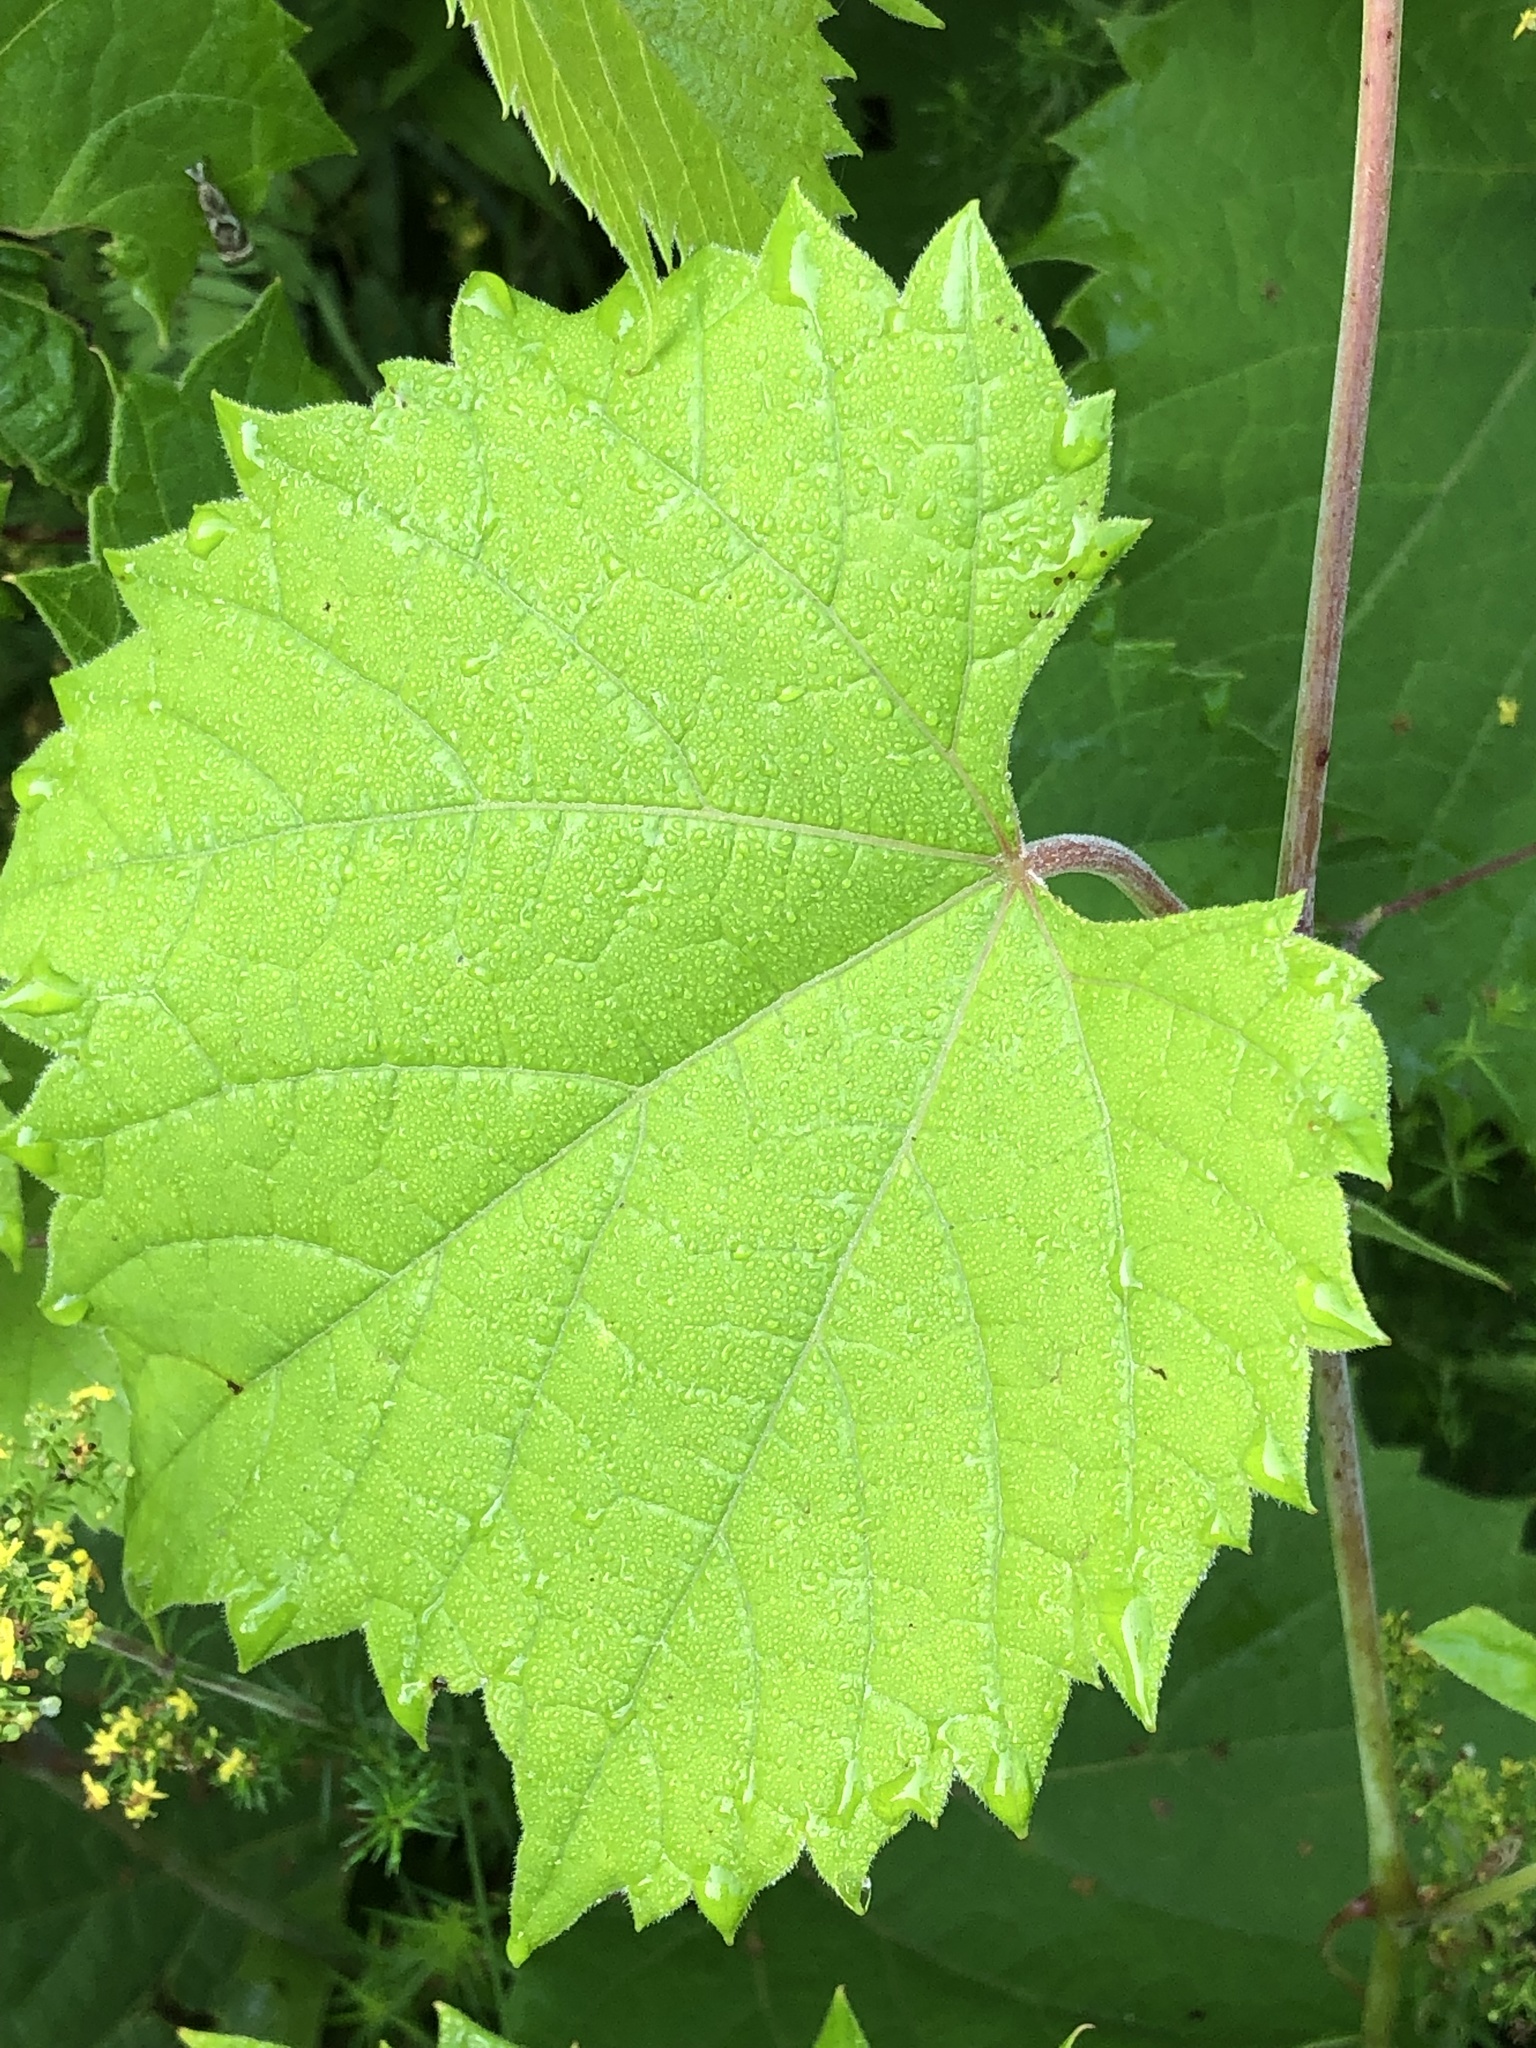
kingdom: Plantae
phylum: Tracheophyta
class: Magnoliopsida
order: Vitales
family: Vitaceae
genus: Vitis
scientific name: Vitis riparia
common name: Frost grape
